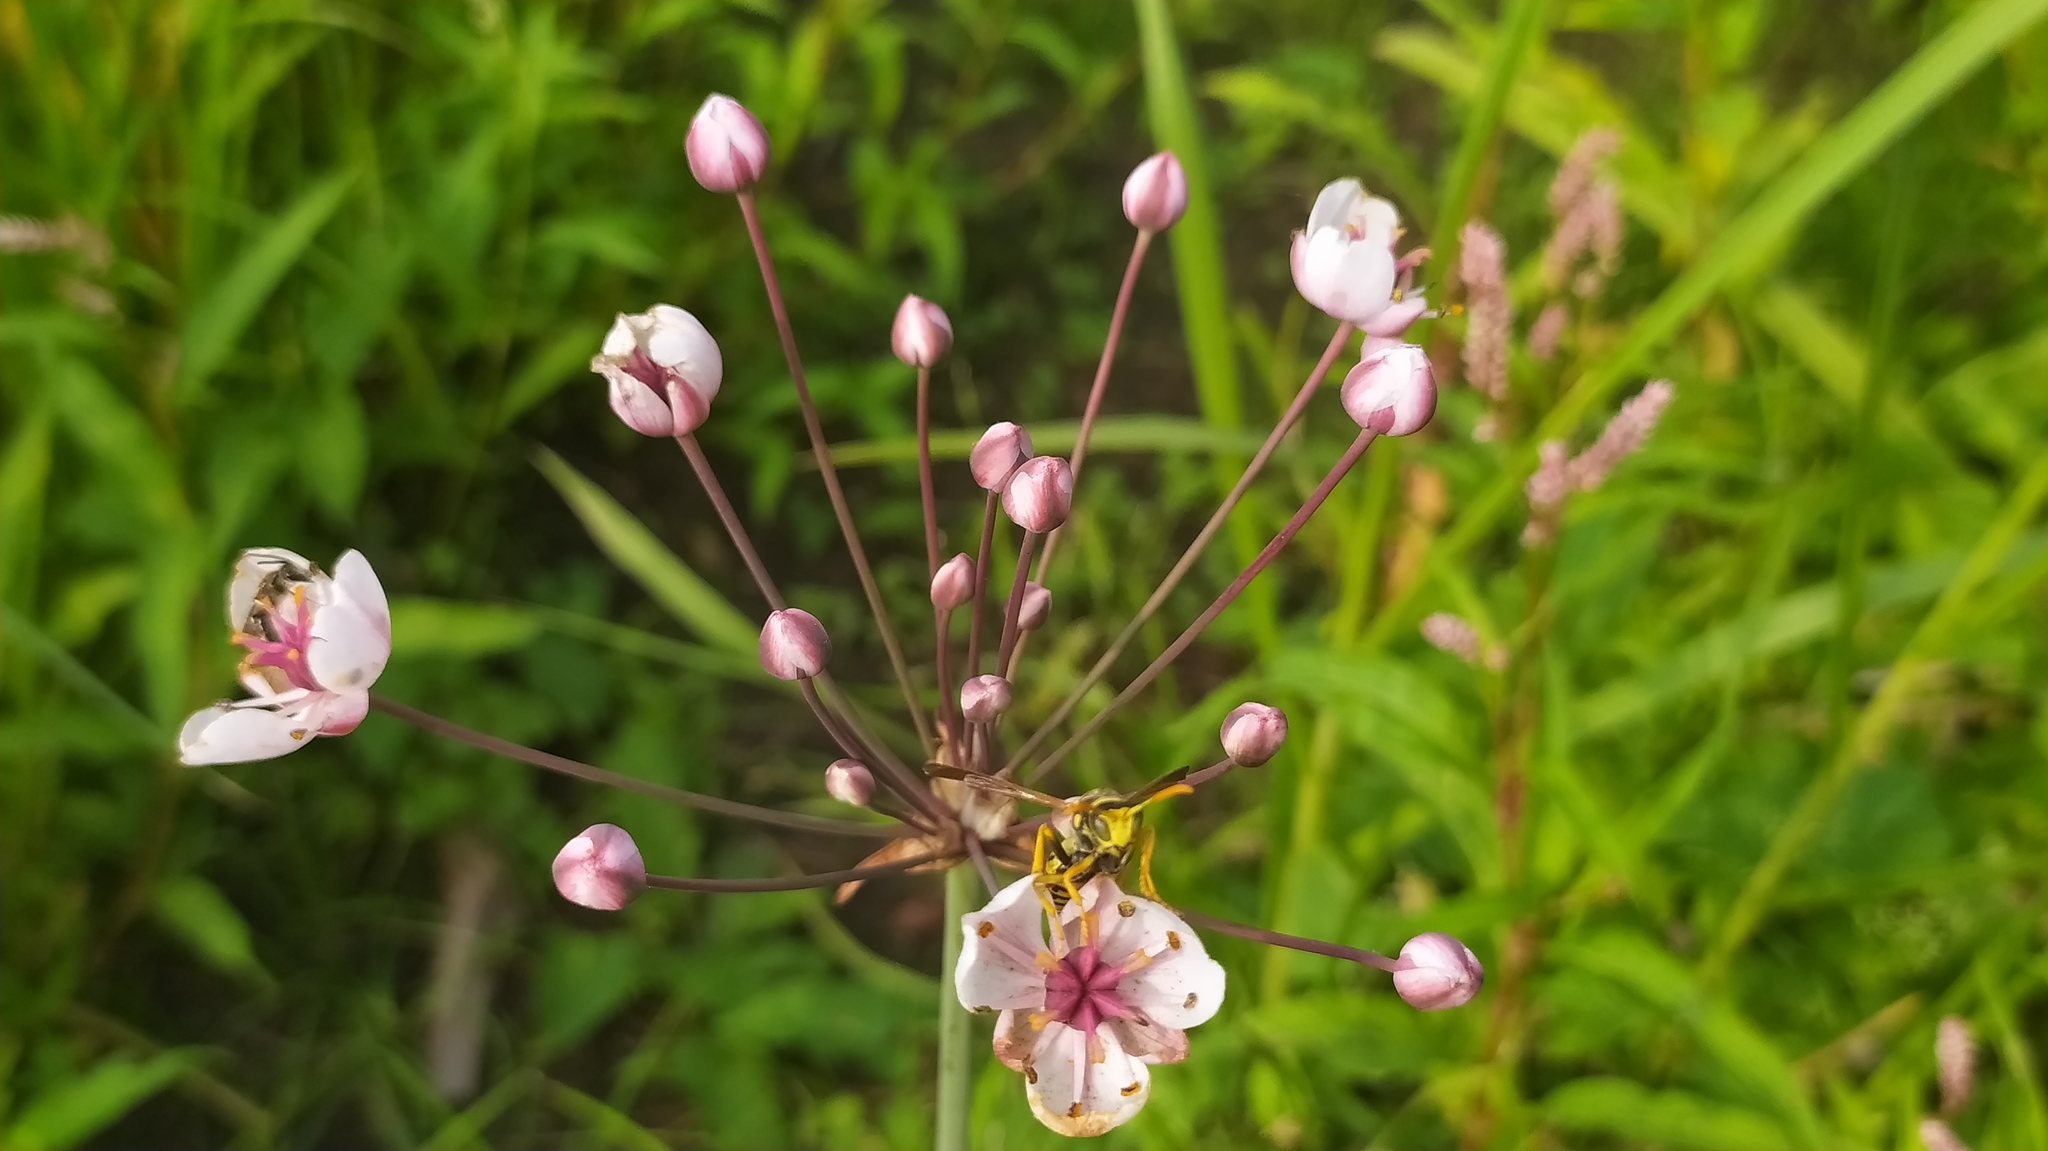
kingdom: Plantae
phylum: Tracheophyta
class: Liliopsida
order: Alismatales
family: Butomaceae
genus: Butomus
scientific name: Butomus umbellatus
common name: Flowering-rush
